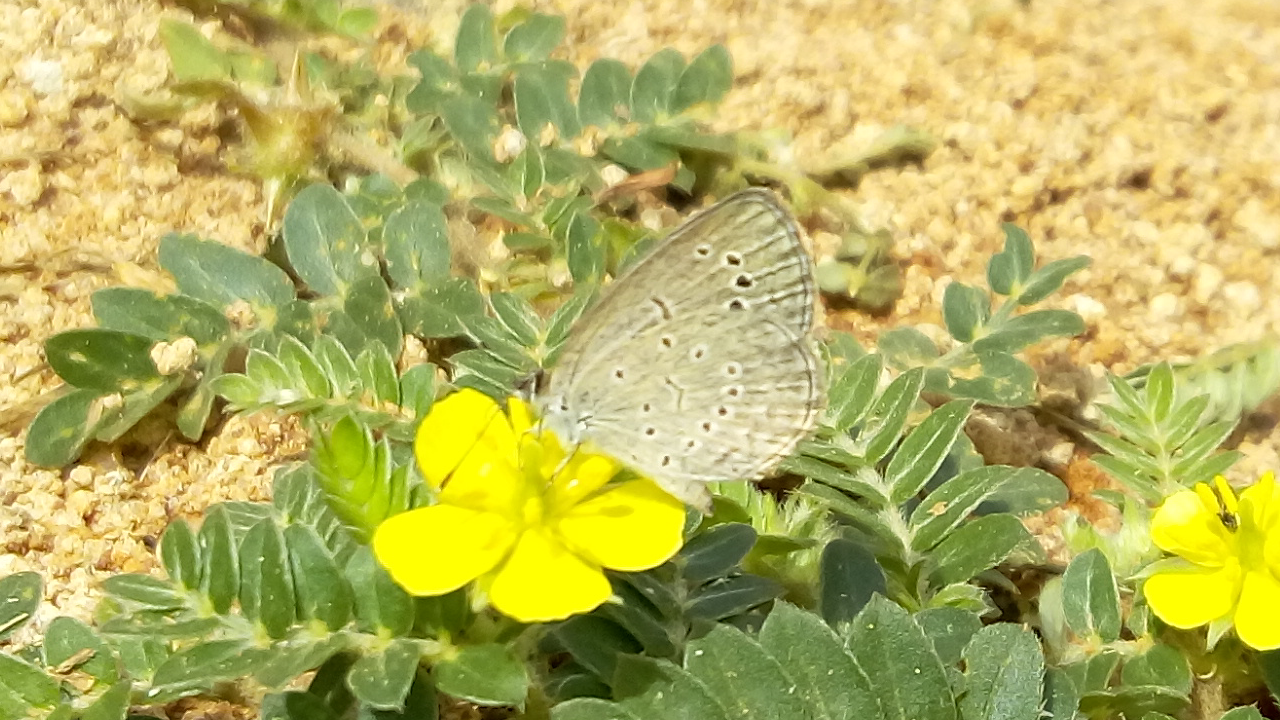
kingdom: Animalia
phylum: Arthropoda
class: Insecta
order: Lepidoptera
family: Lycaenidae
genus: Pseudozizeeria
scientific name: Pseudozizeeria maha
